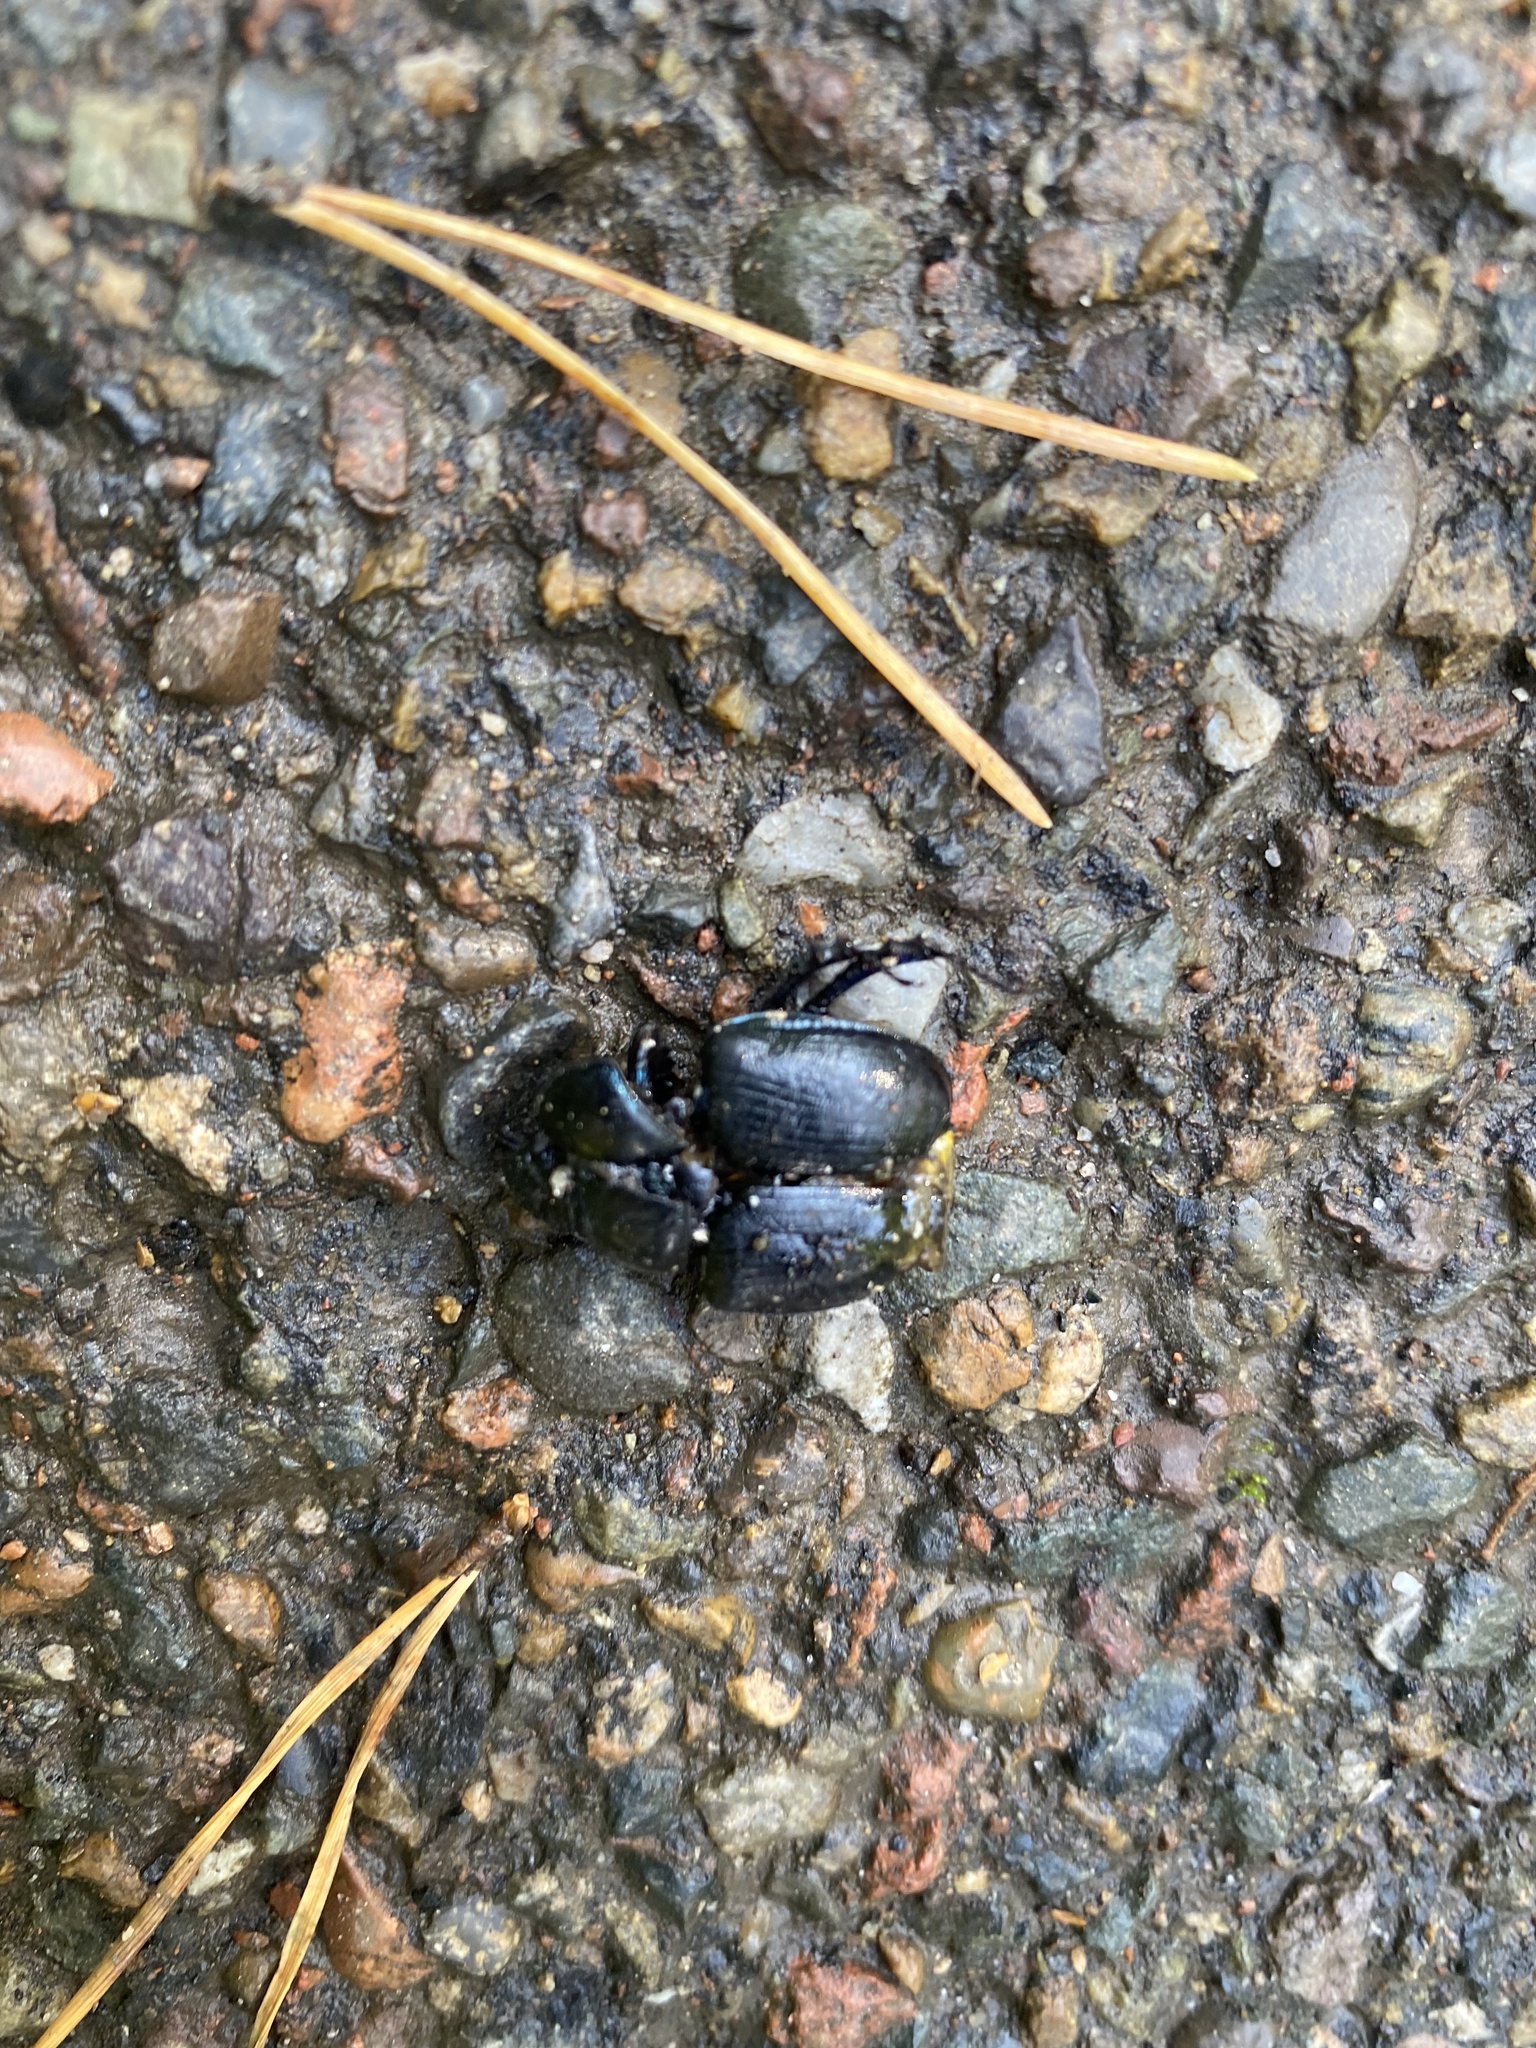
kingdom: Animalia
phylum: Arthropoda
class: Insecta
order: Coleoptera
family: Geotrupidae
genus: Anoplotrupes
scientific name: Anoplotrupes stercorosus
